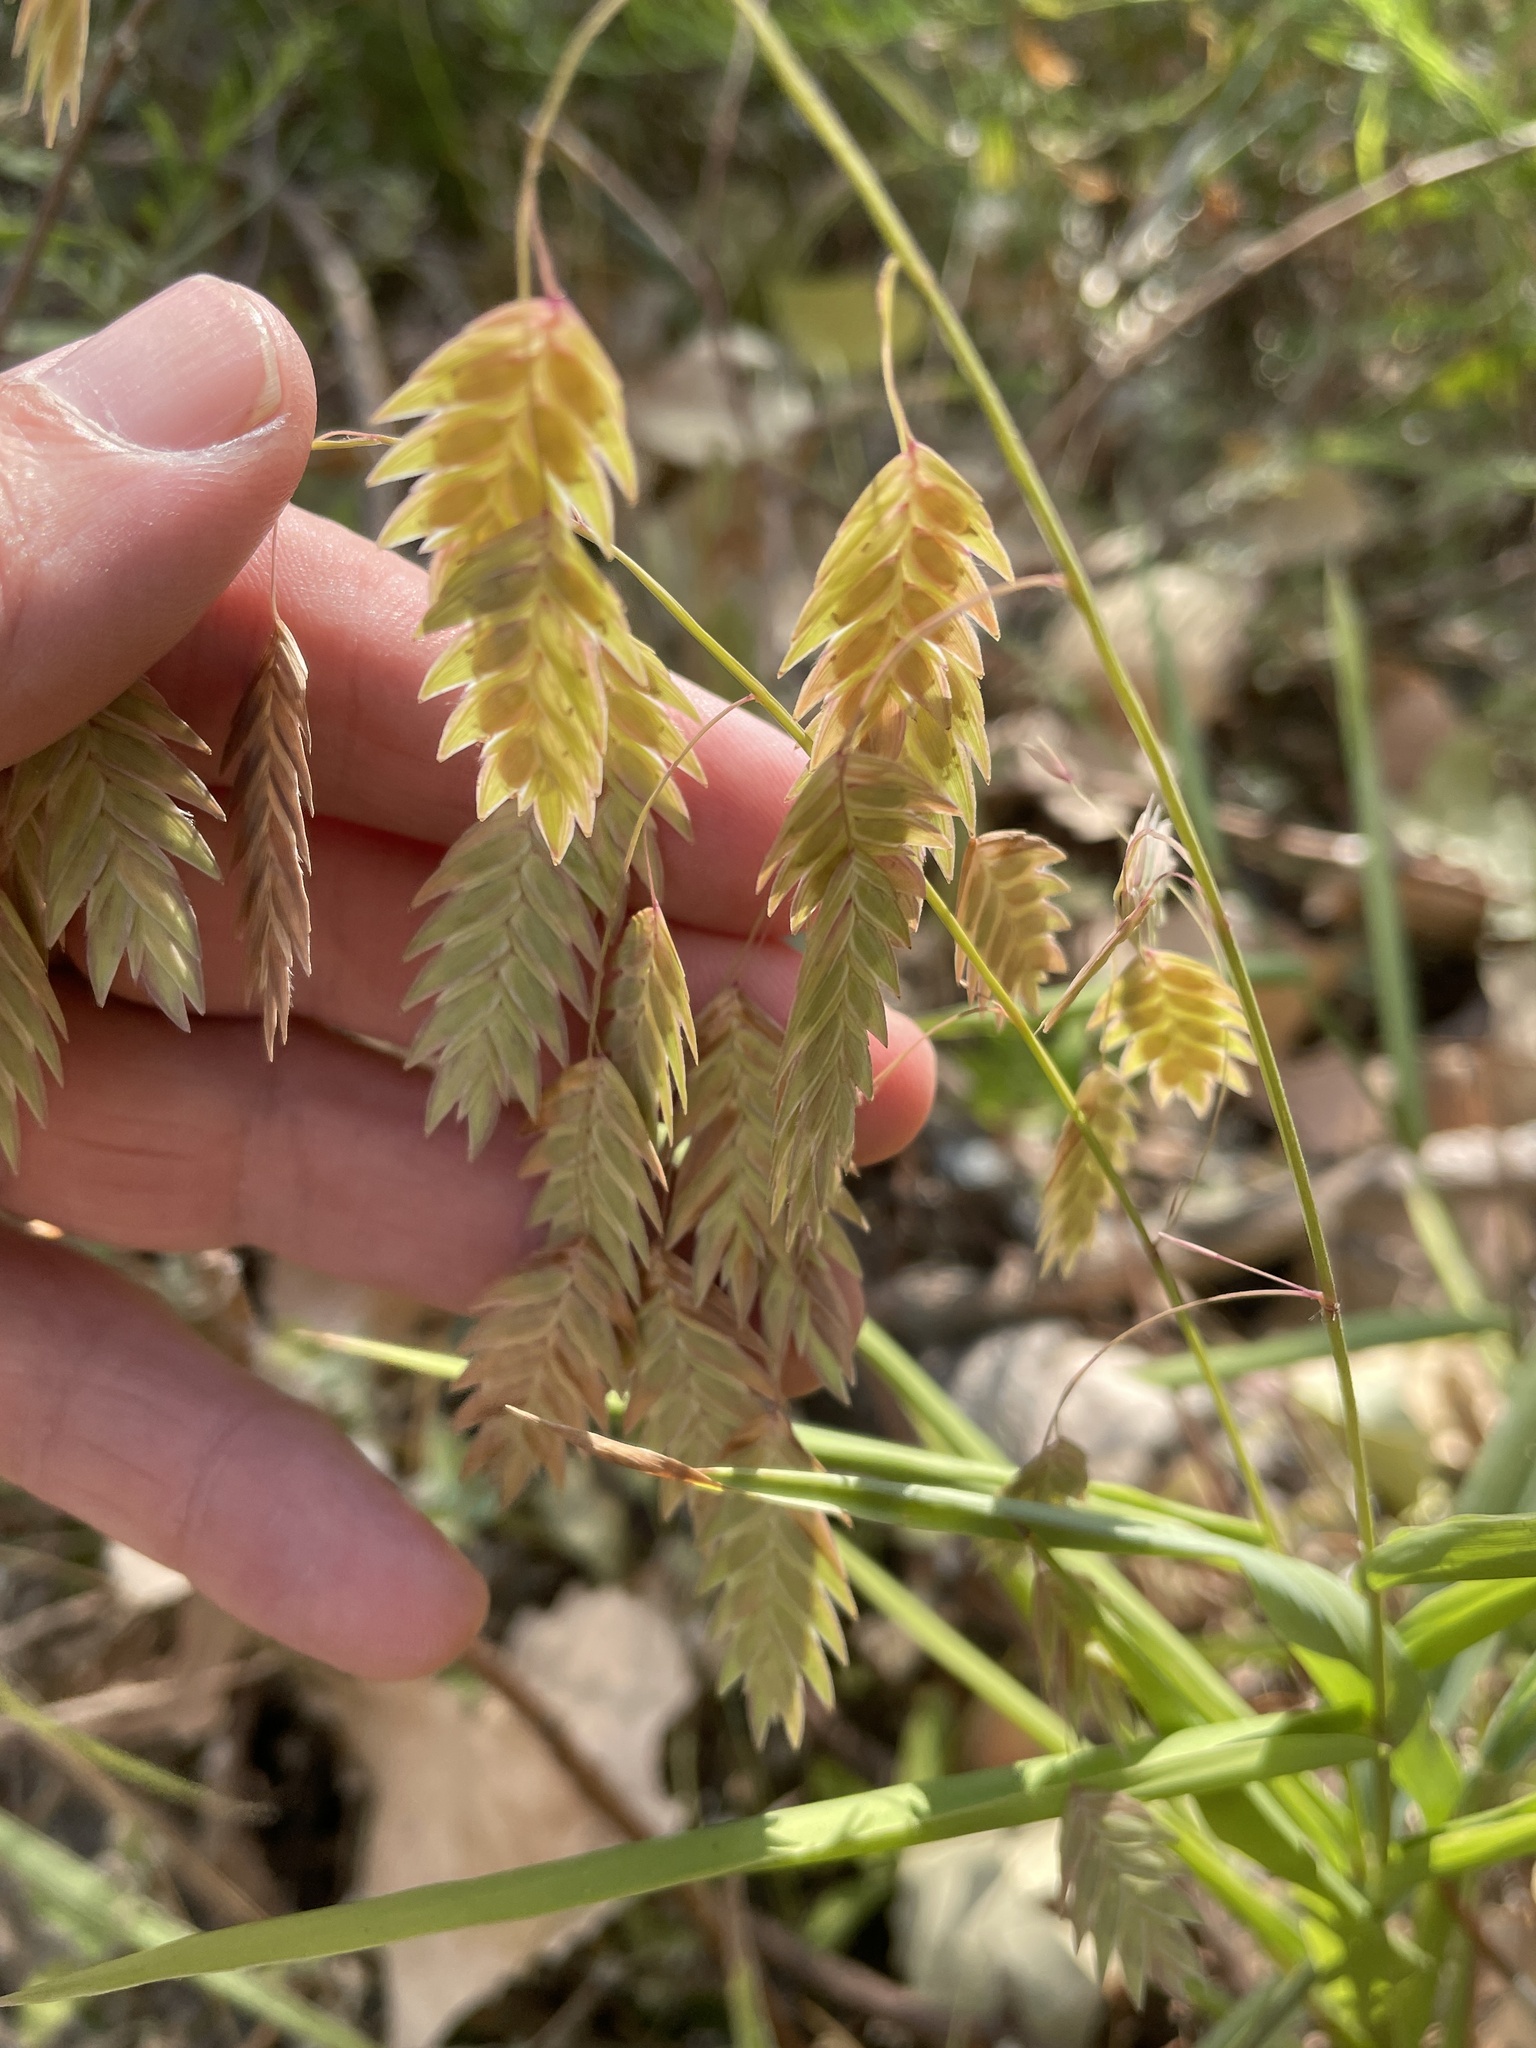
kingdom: Plantae
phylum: Tracheophyta
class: Liliopsida
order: Poales
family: Poaceae
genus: Chasmanthium
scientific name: Chasmanthium latifolium
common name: Broad-leaved chasmanthium
